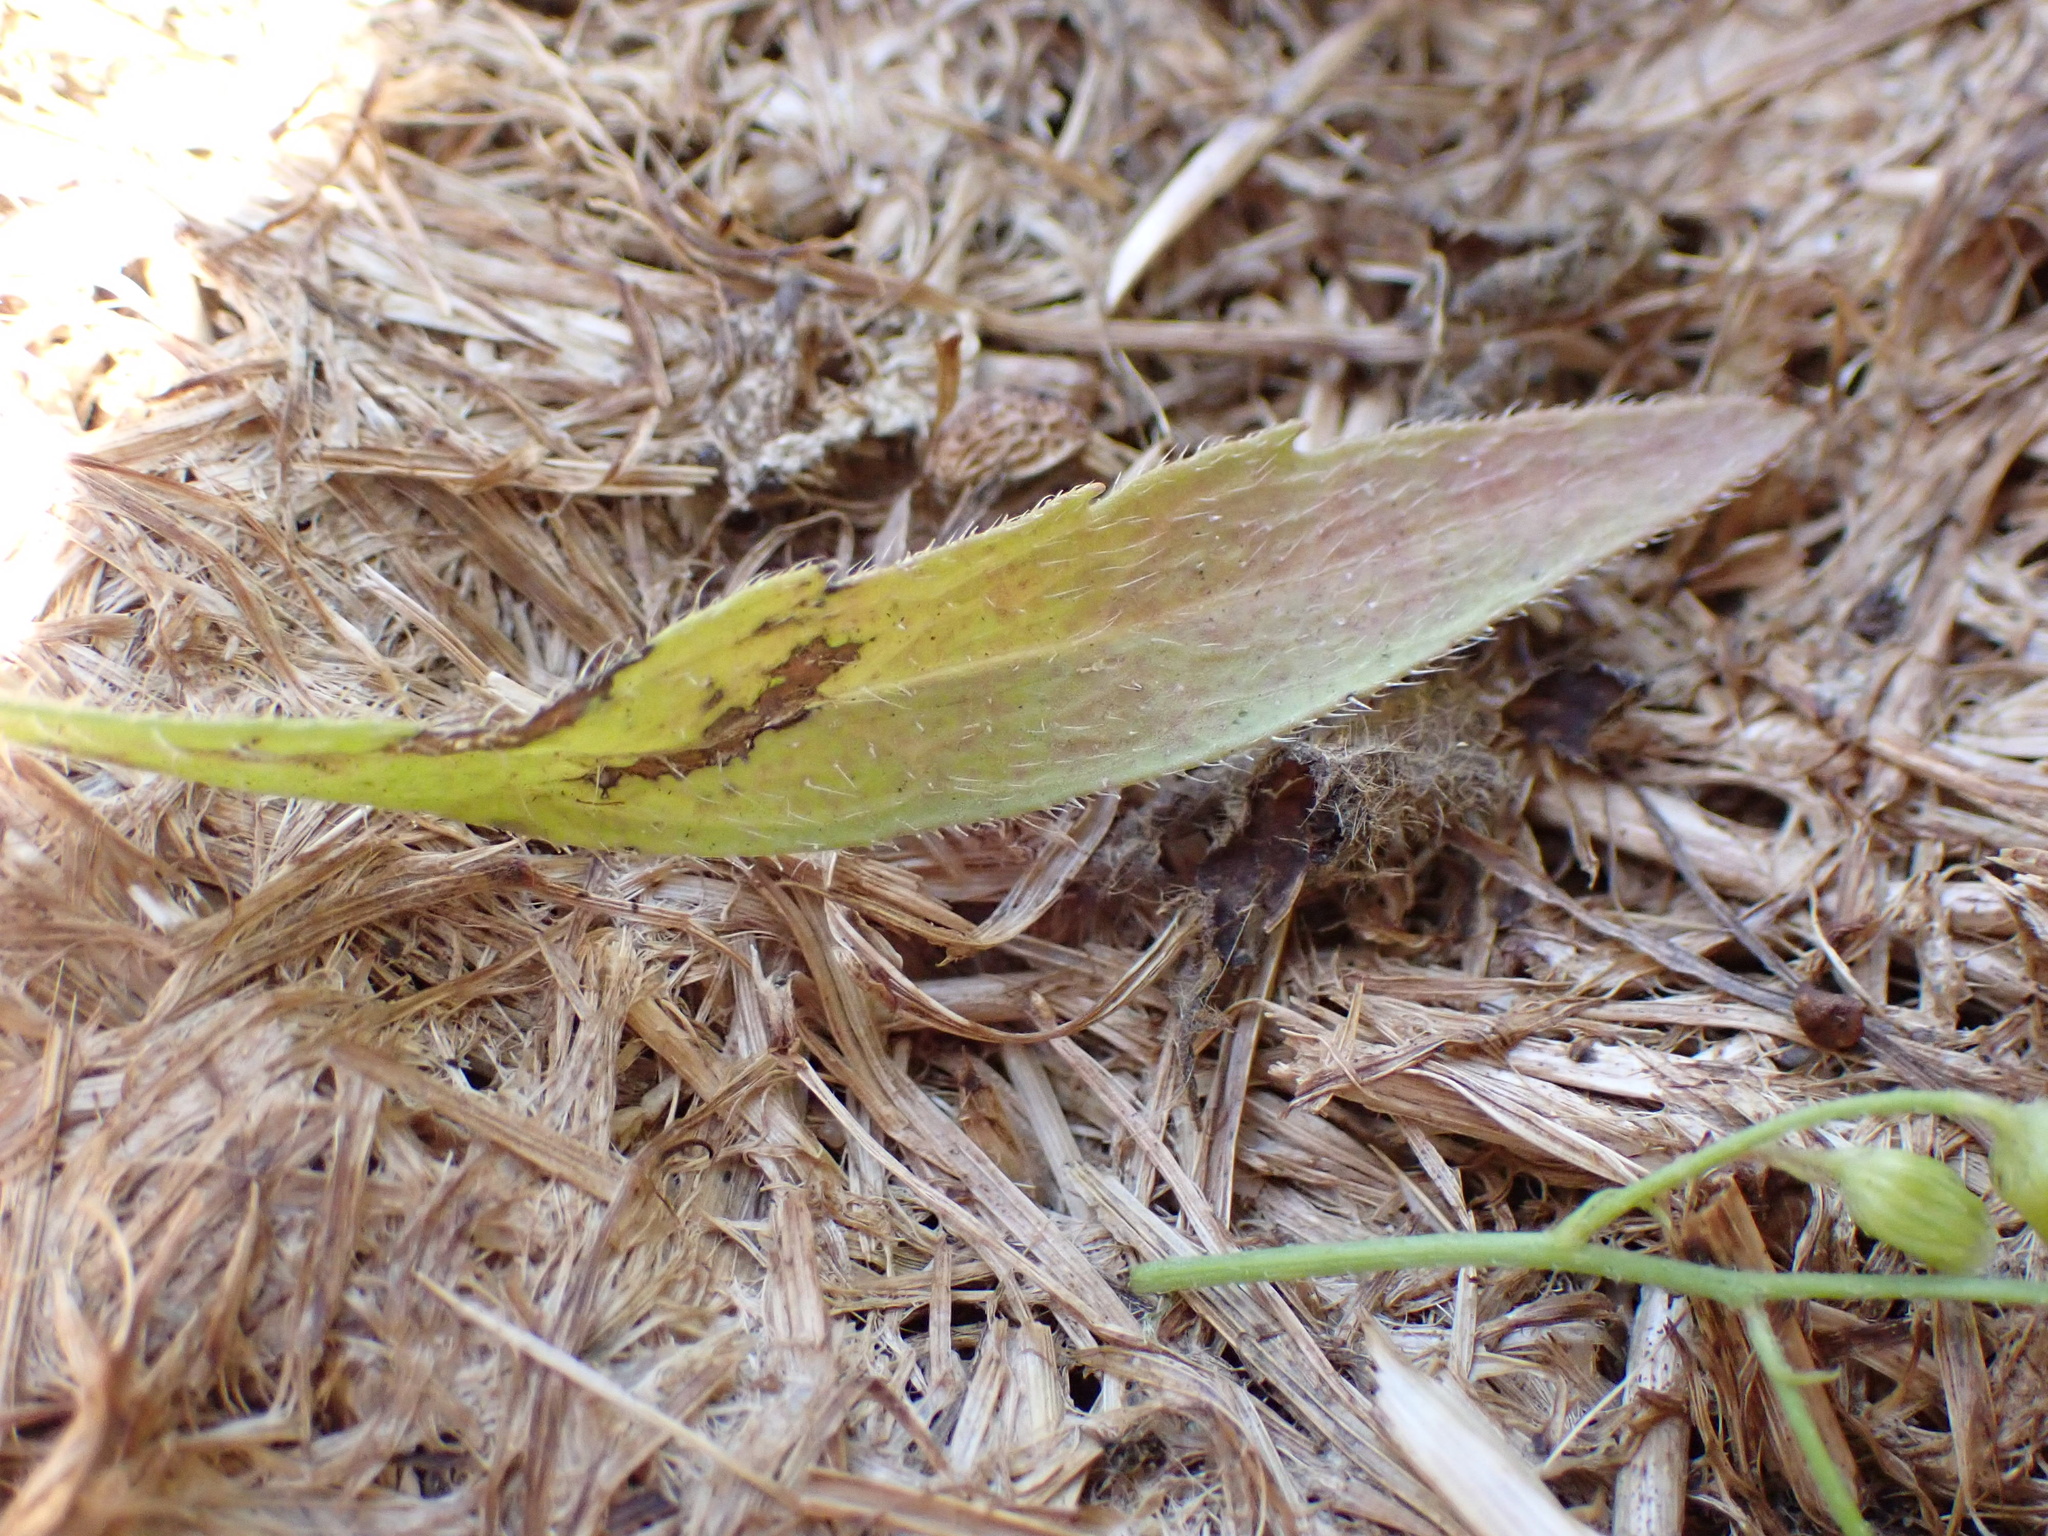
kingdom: Plantae
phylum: Tracheophyta
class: Magnoliopsida
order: Asterales
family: Asteraceae
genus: Erigeron
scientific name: Erigeron floribundus
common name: Bilbao fleabane
